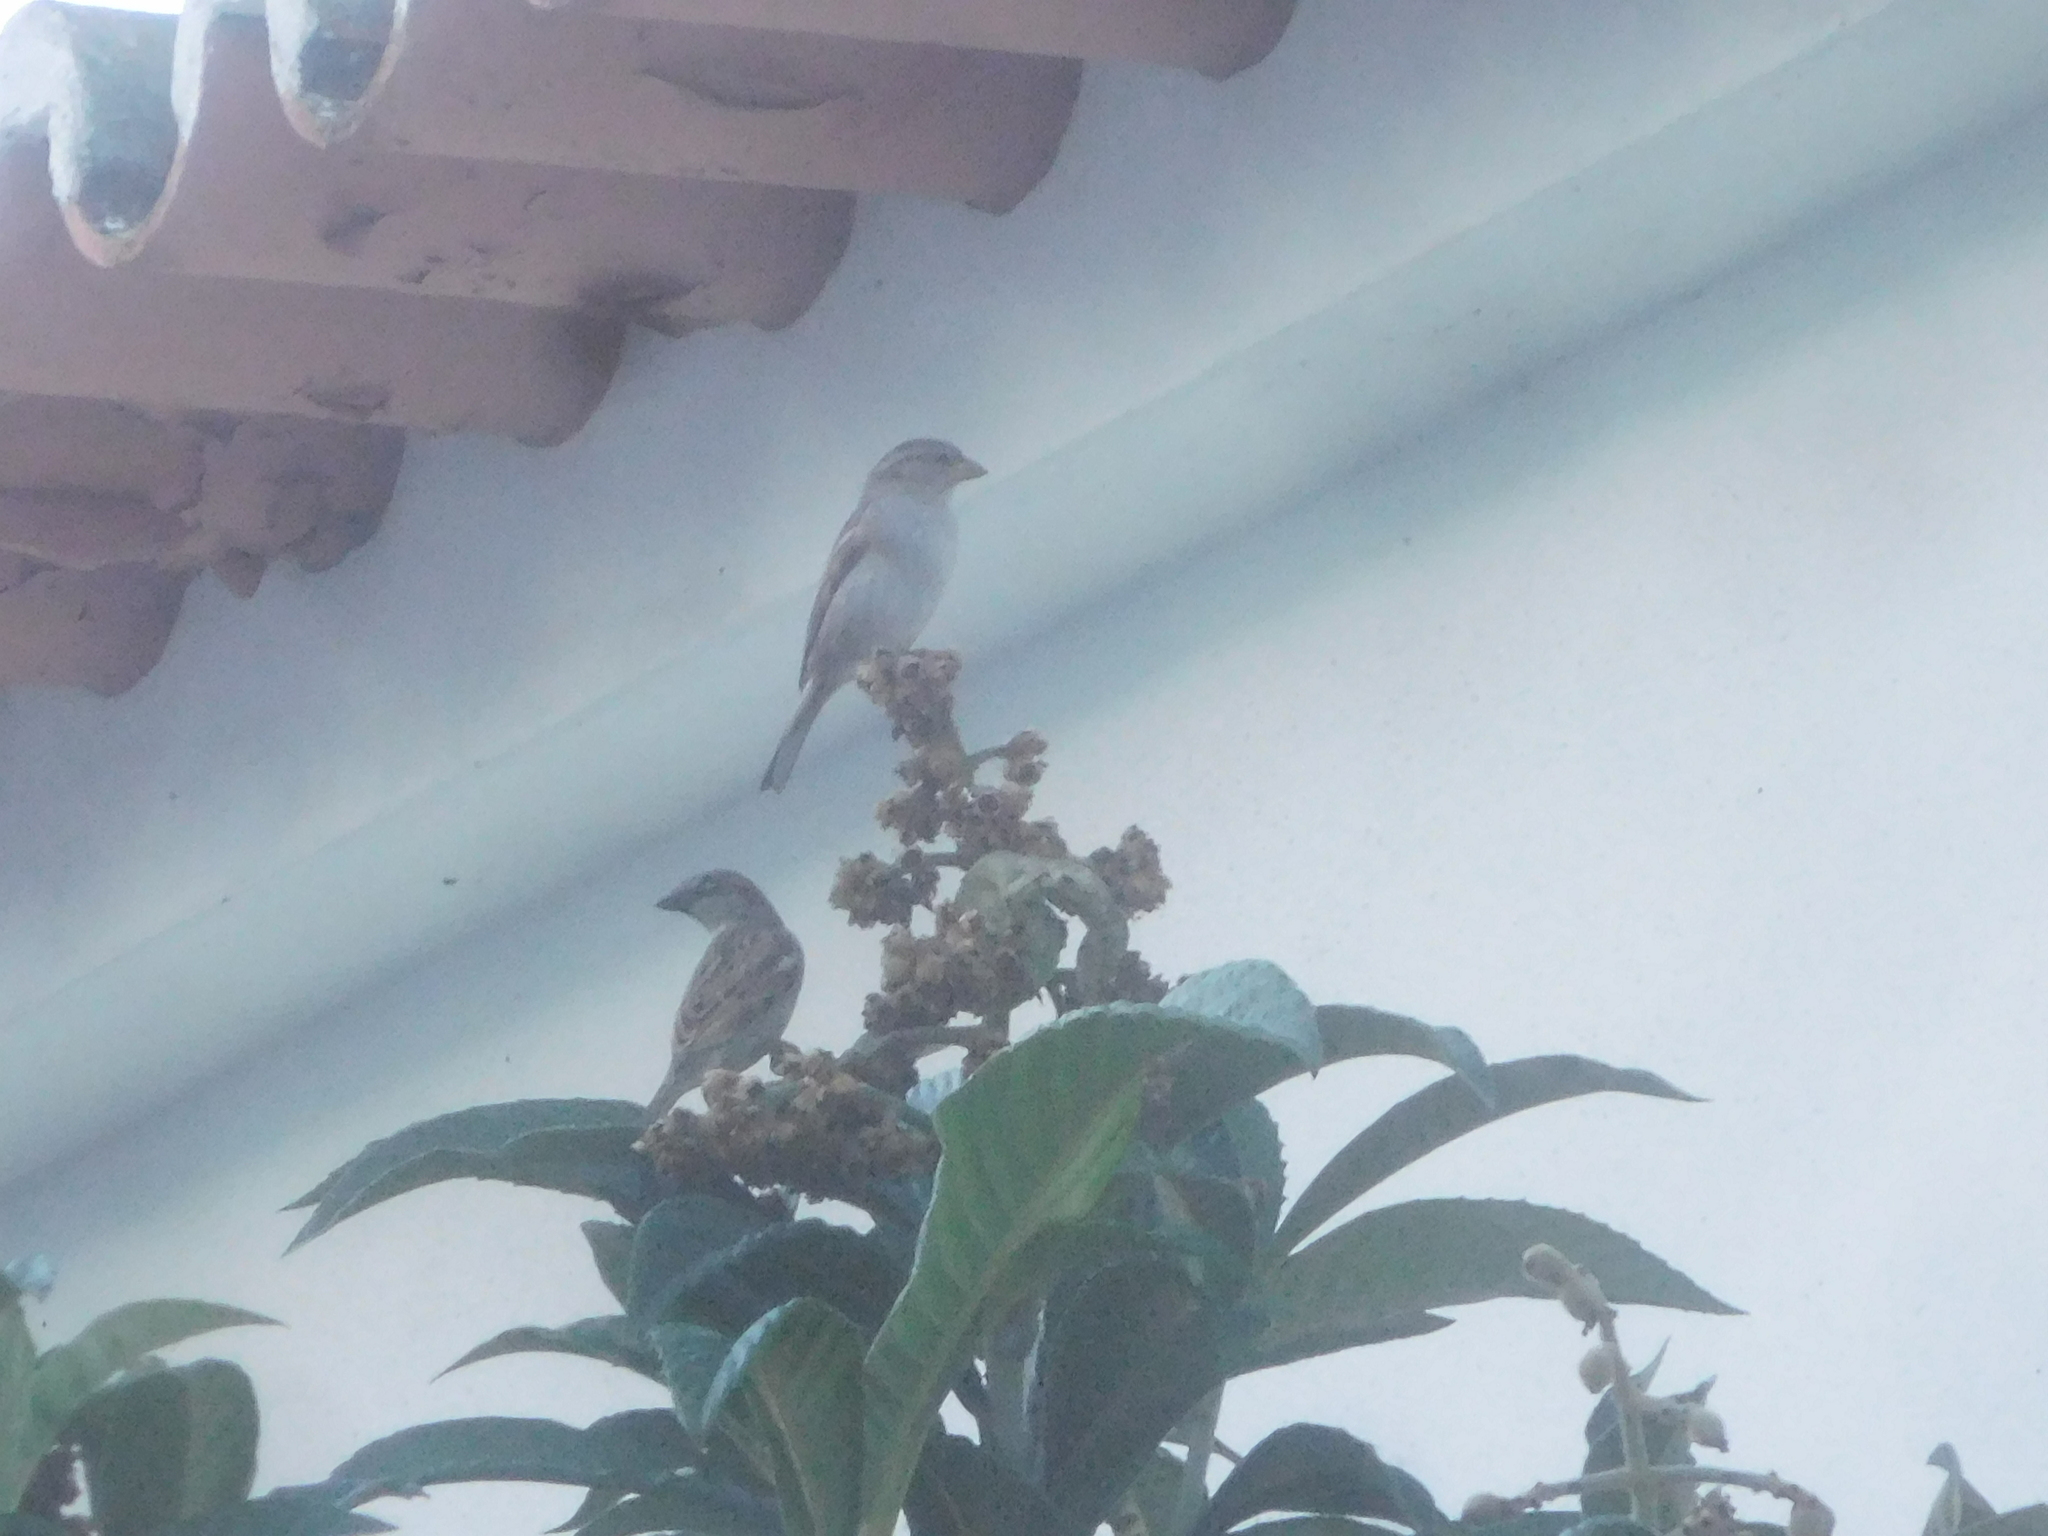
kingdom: Animalia
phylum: Chordata
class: Aves
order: Passeriformes
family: Passeridae
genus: Passer
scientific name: Passer domesticus
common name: House sparrow
